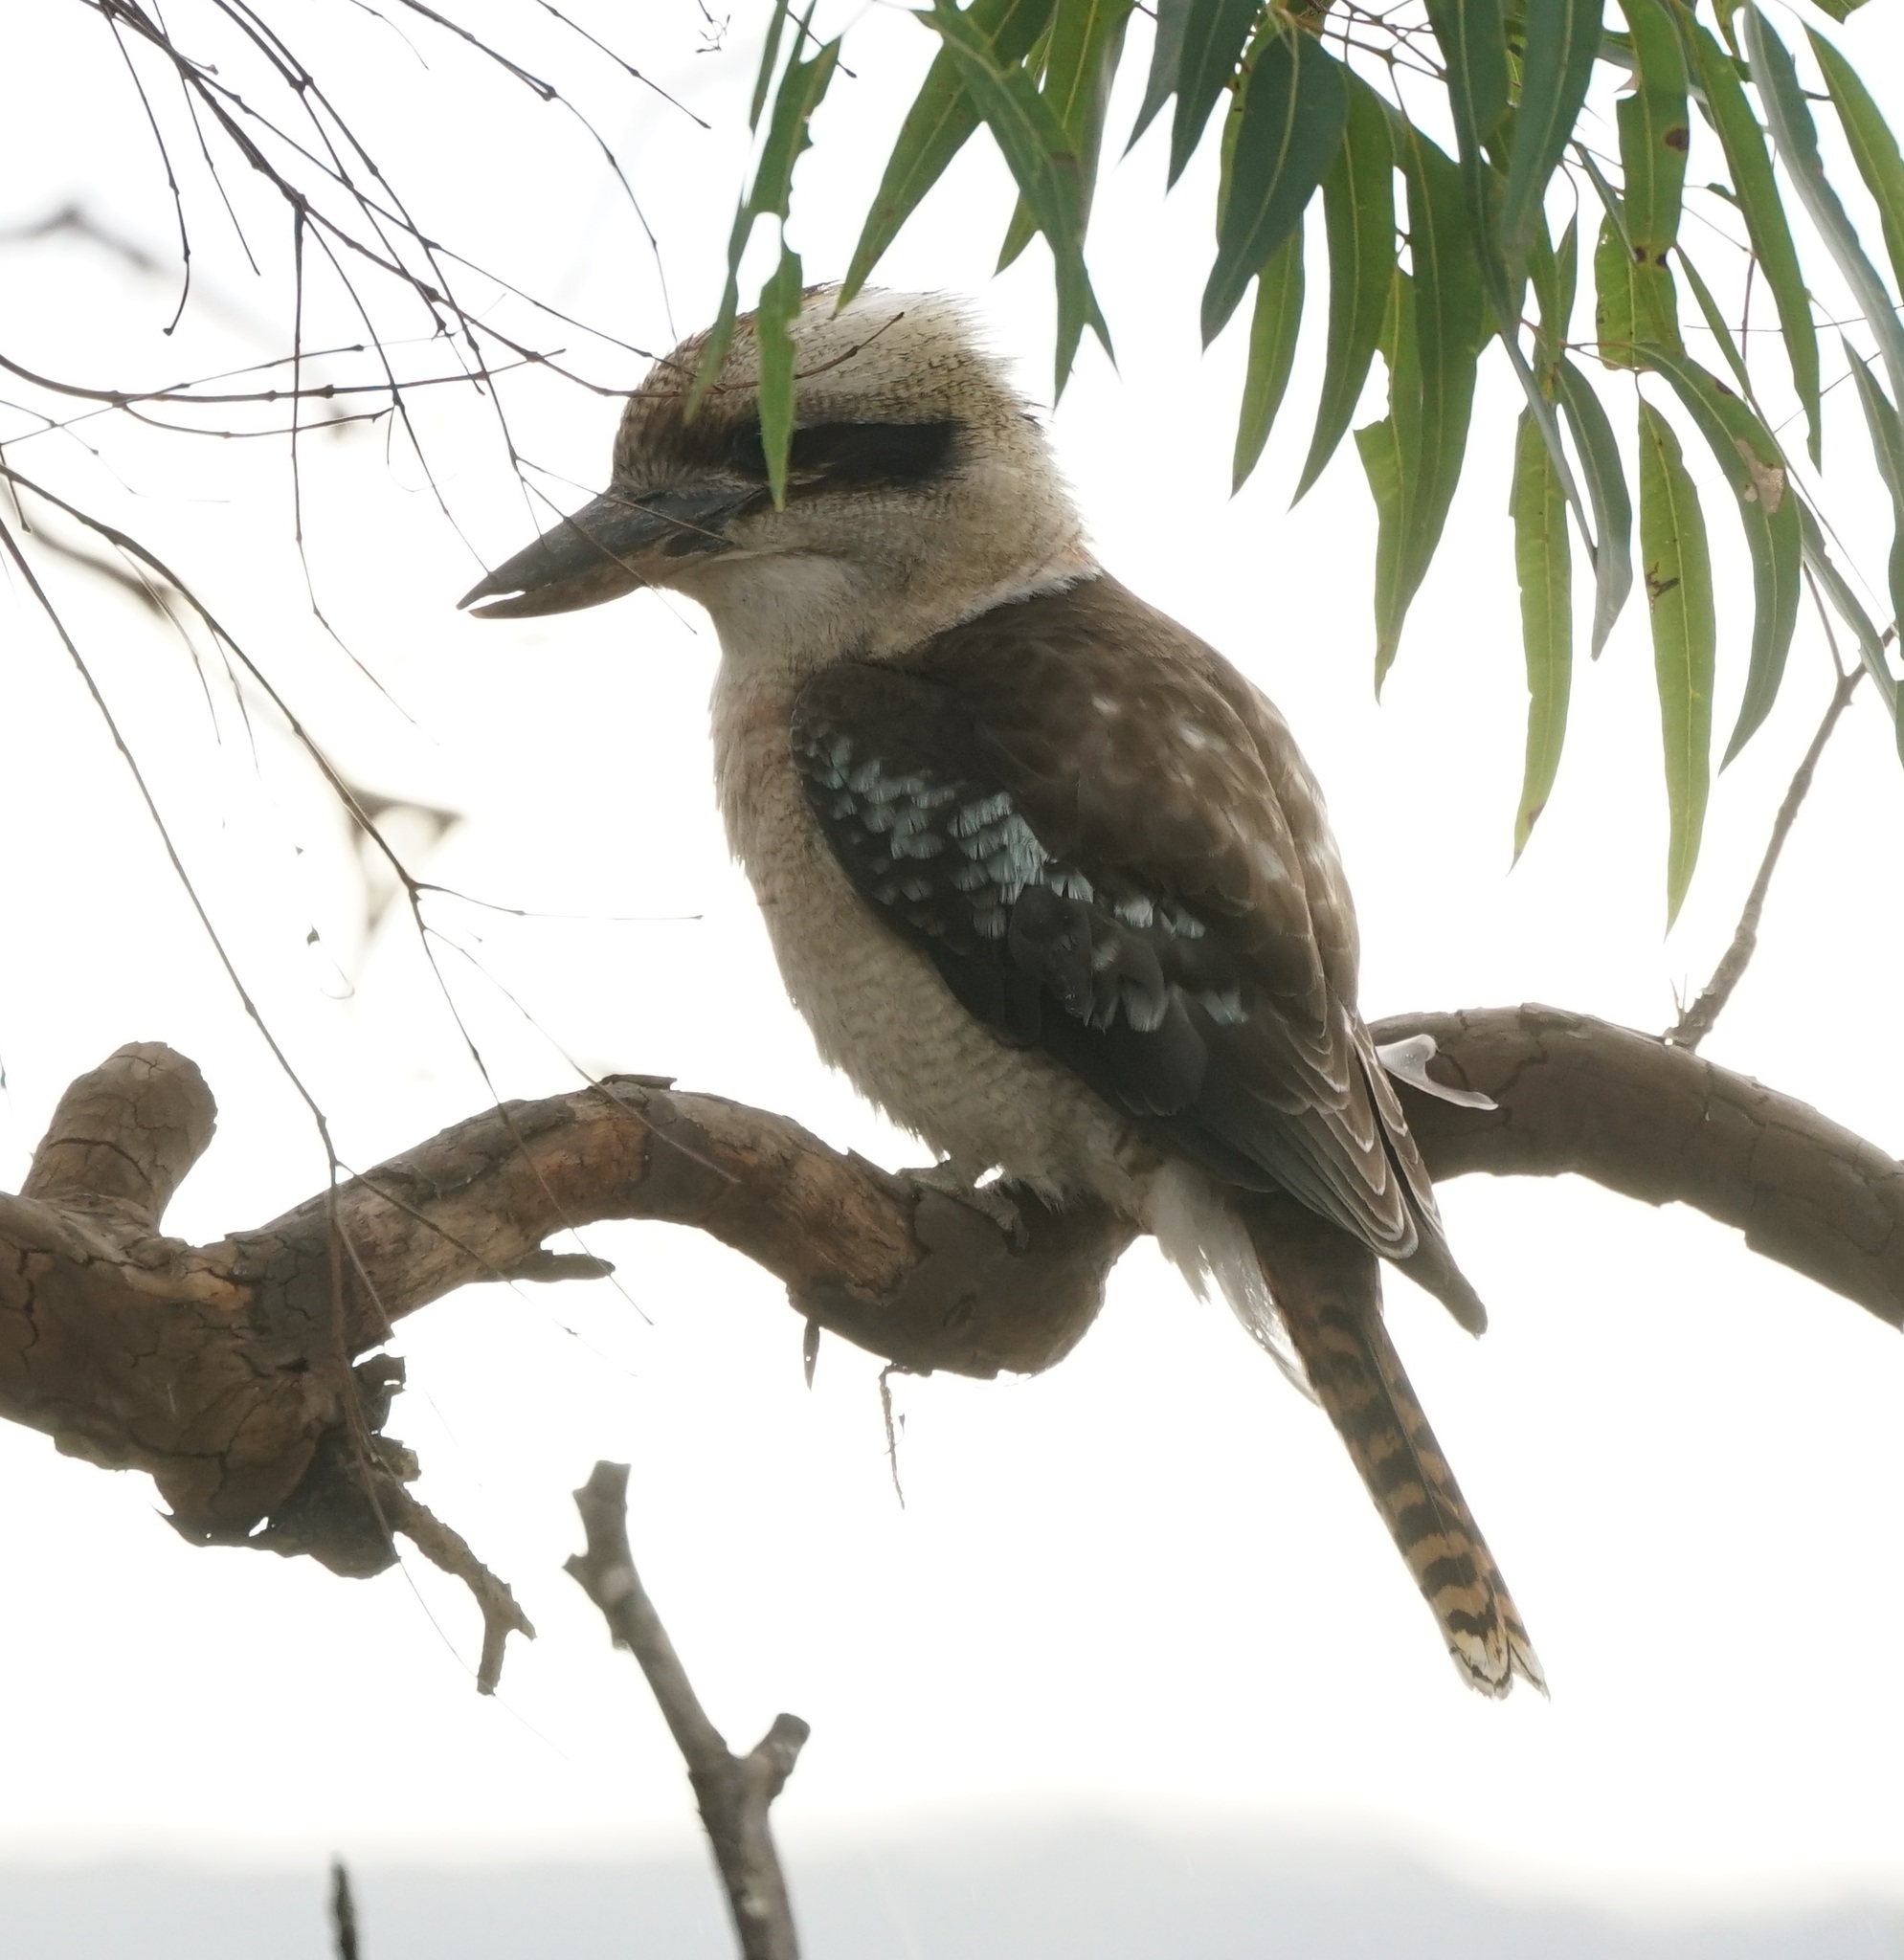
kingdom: Animalia
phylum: Chordata
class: Aves
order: Coraciiformes
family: Alcedinidae
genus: Dacelo
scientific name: Dacelo novaeguineae
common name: Laughing kookaburra
